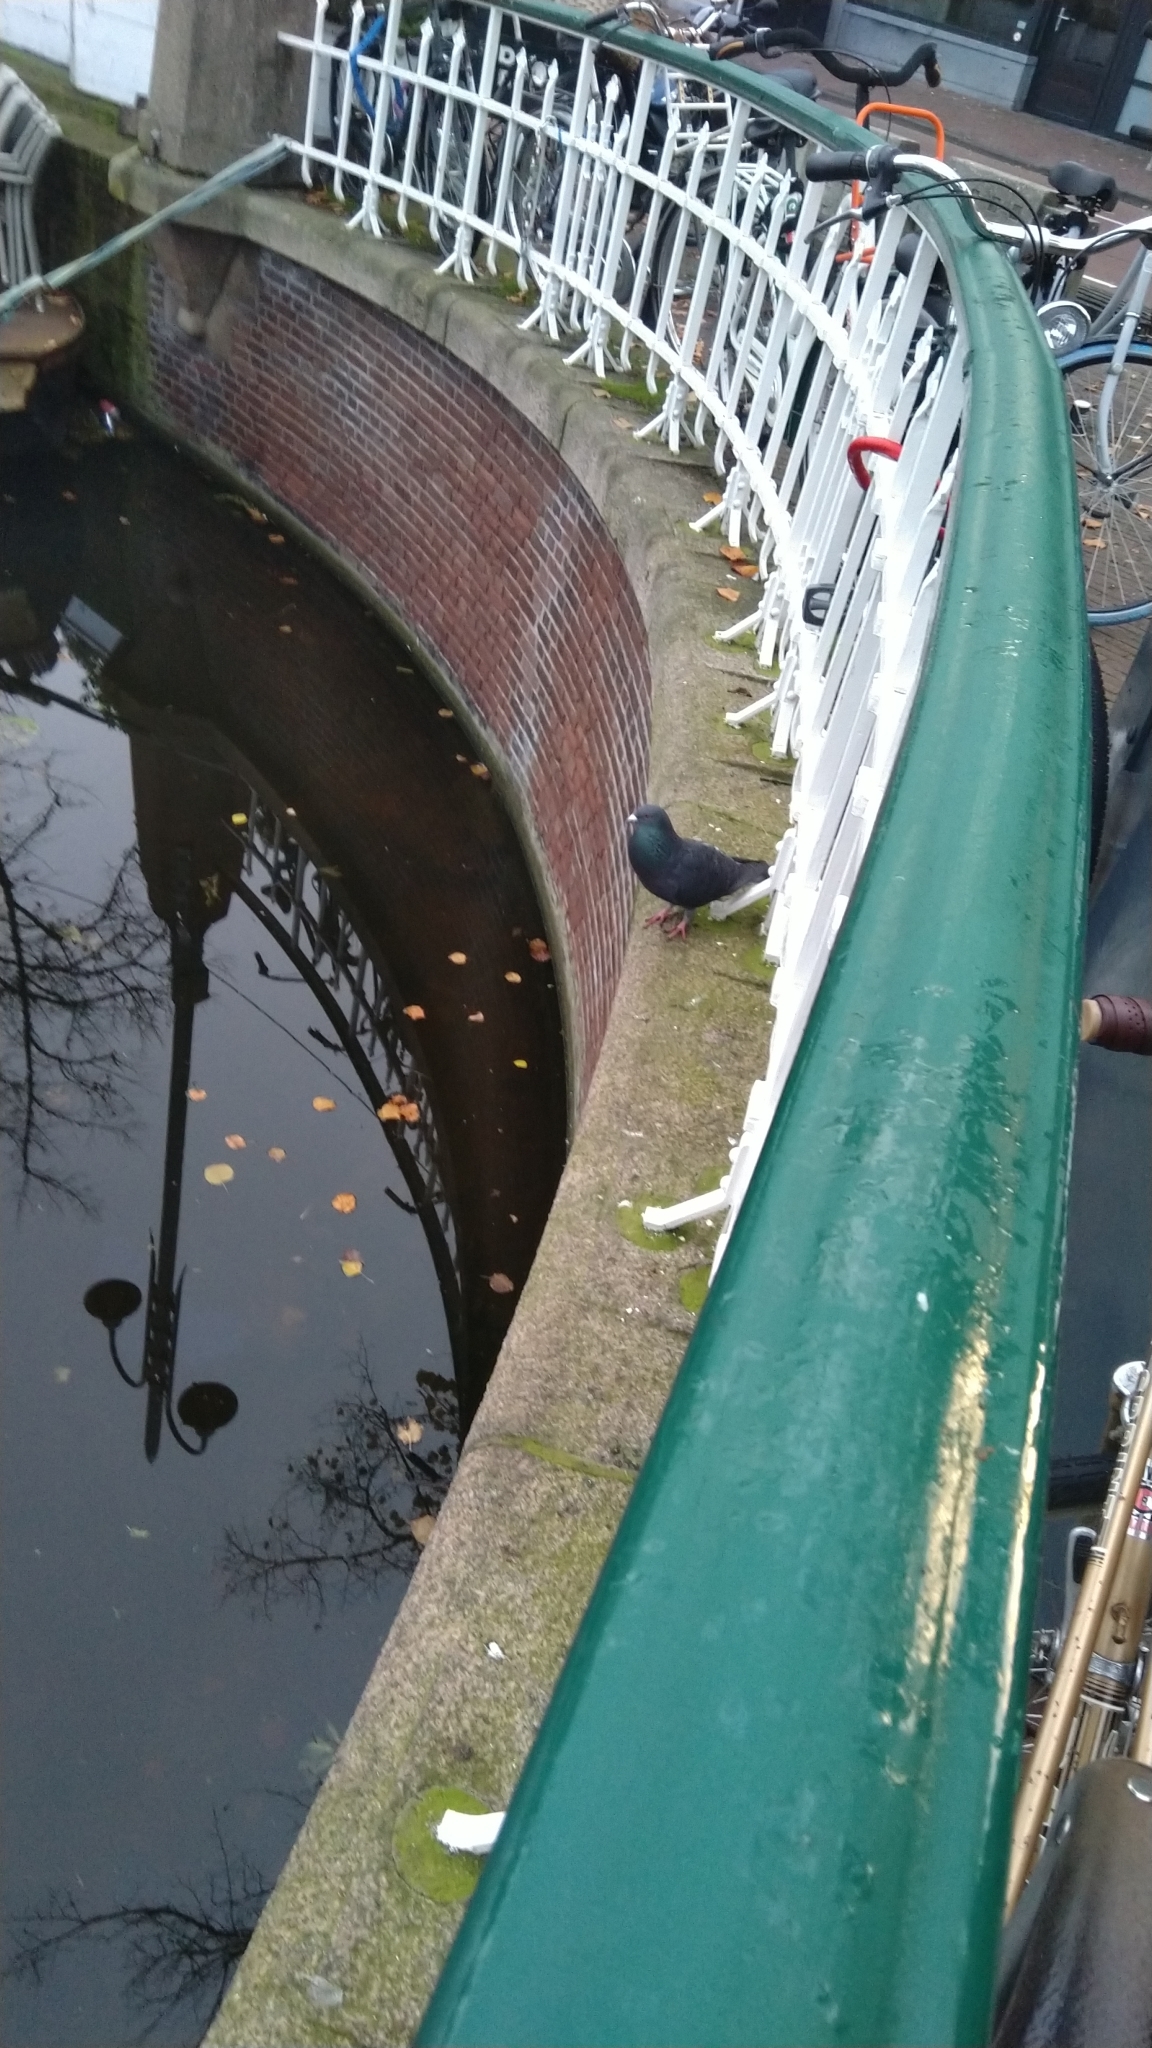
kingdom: Animalia
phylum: Chordata
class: Aves
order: Columbiformes
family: Columbidae
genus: Columba
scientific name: Columba livia
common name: Rock pigeon
